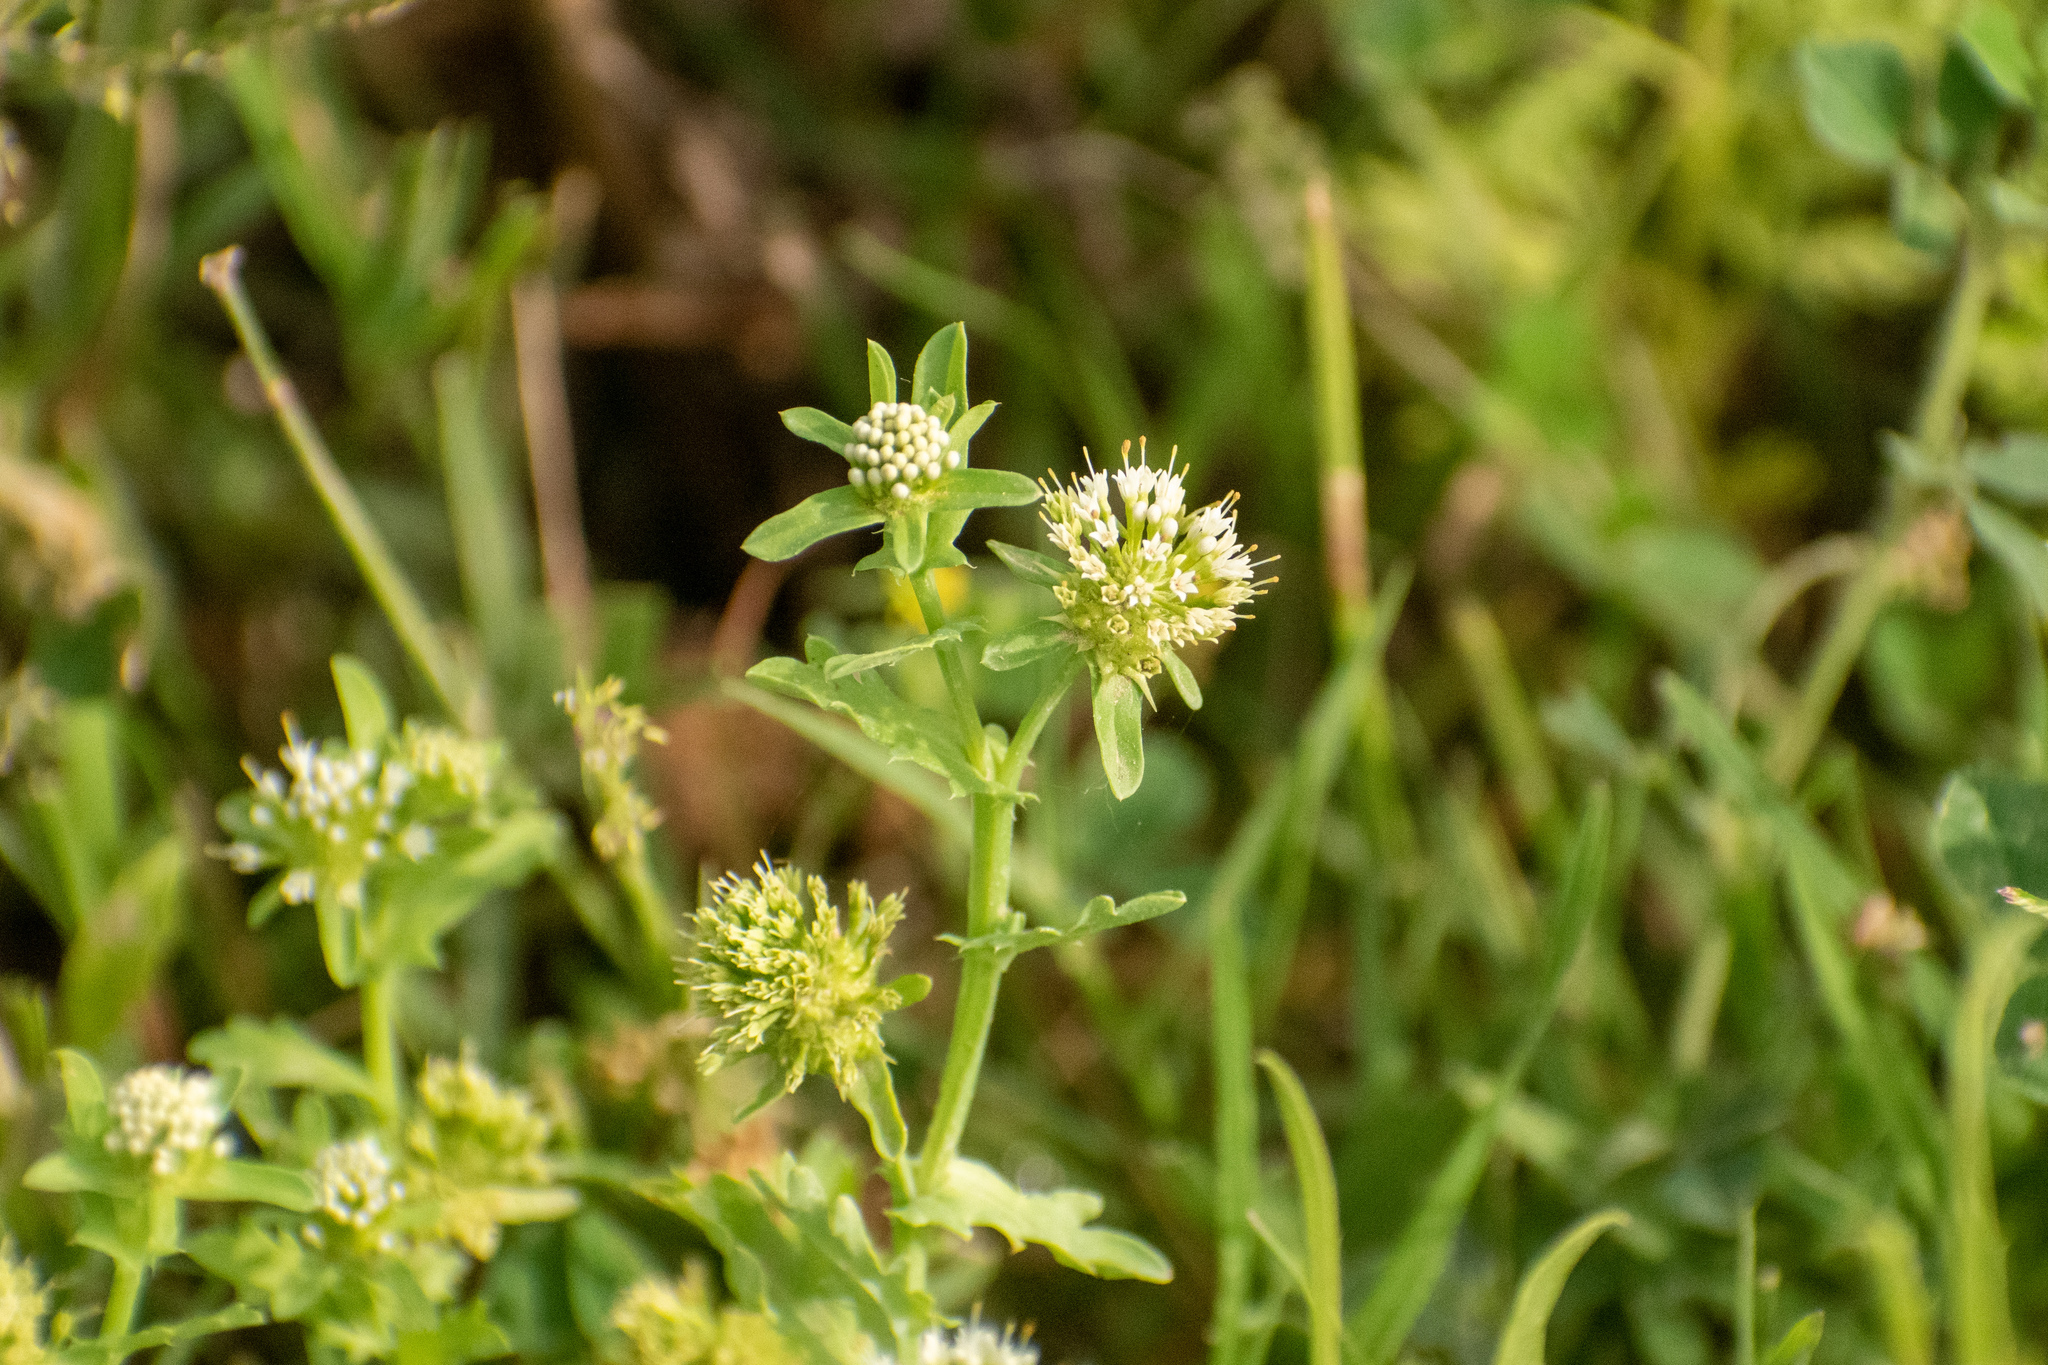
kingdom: Plantae
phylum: Tracheophyta
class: Magnoliopsida
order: Asterales
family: Calyceraceae
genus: Acicarpha
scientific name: Acicarpha tribuloides
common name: Madam gorgon
